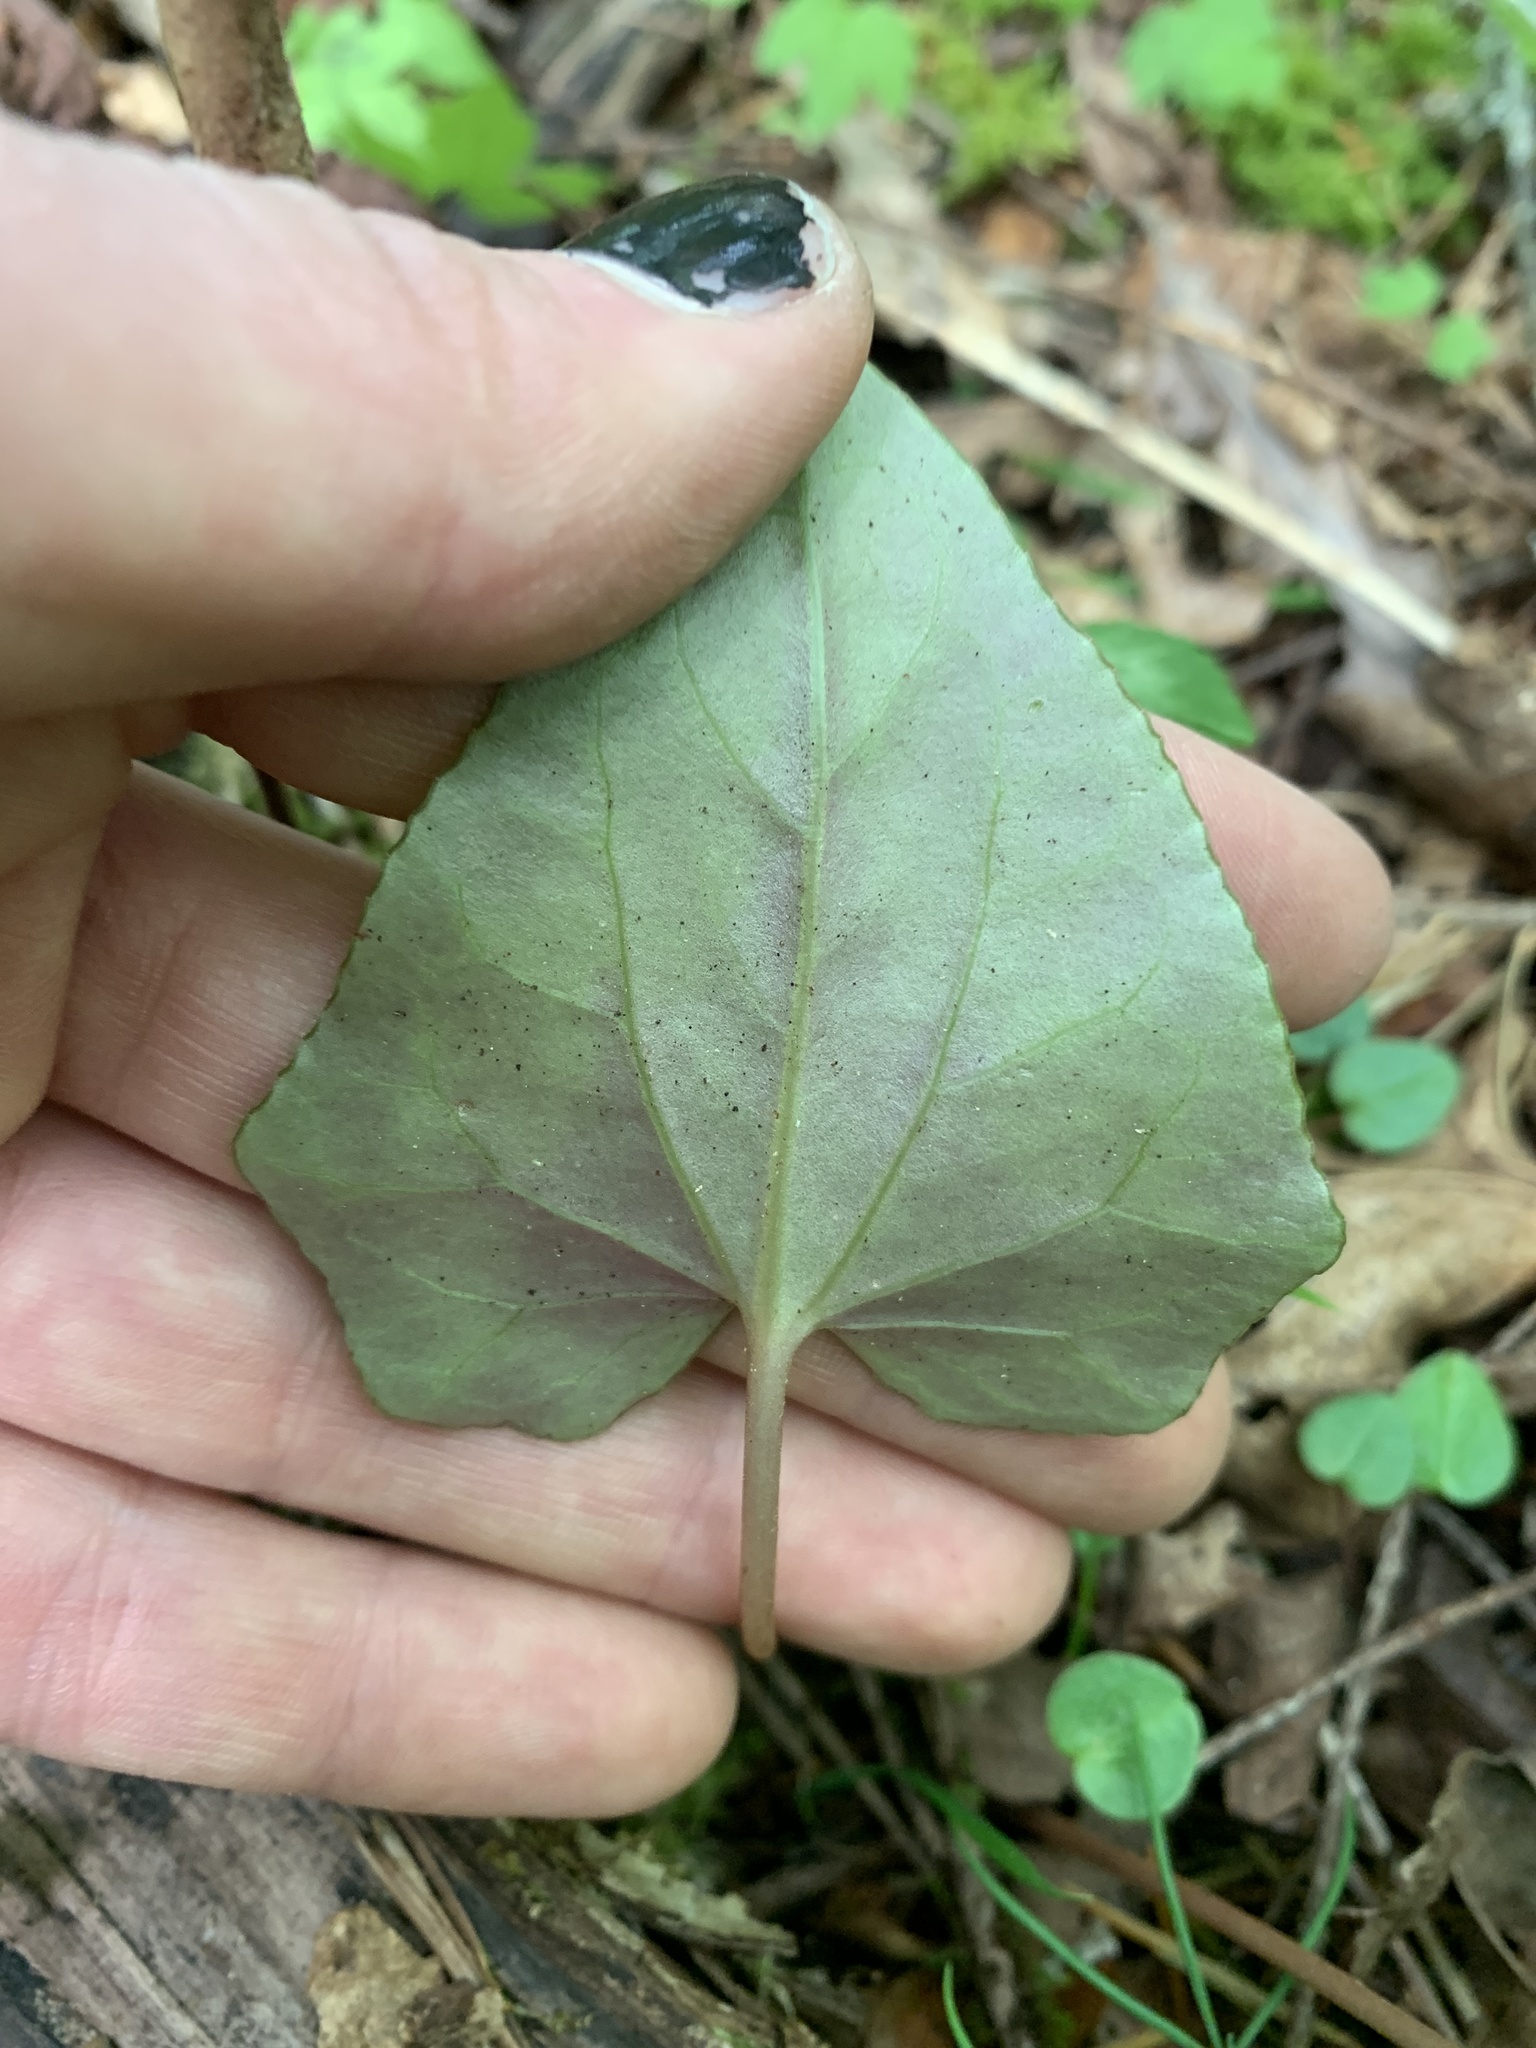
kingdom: Plantae
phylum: Tracheophyta
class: Magnoliopsida
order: Ericales
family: Primulaceae
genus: Cyclamen
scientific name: Cyclamen hederifolium
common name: Sowbread
